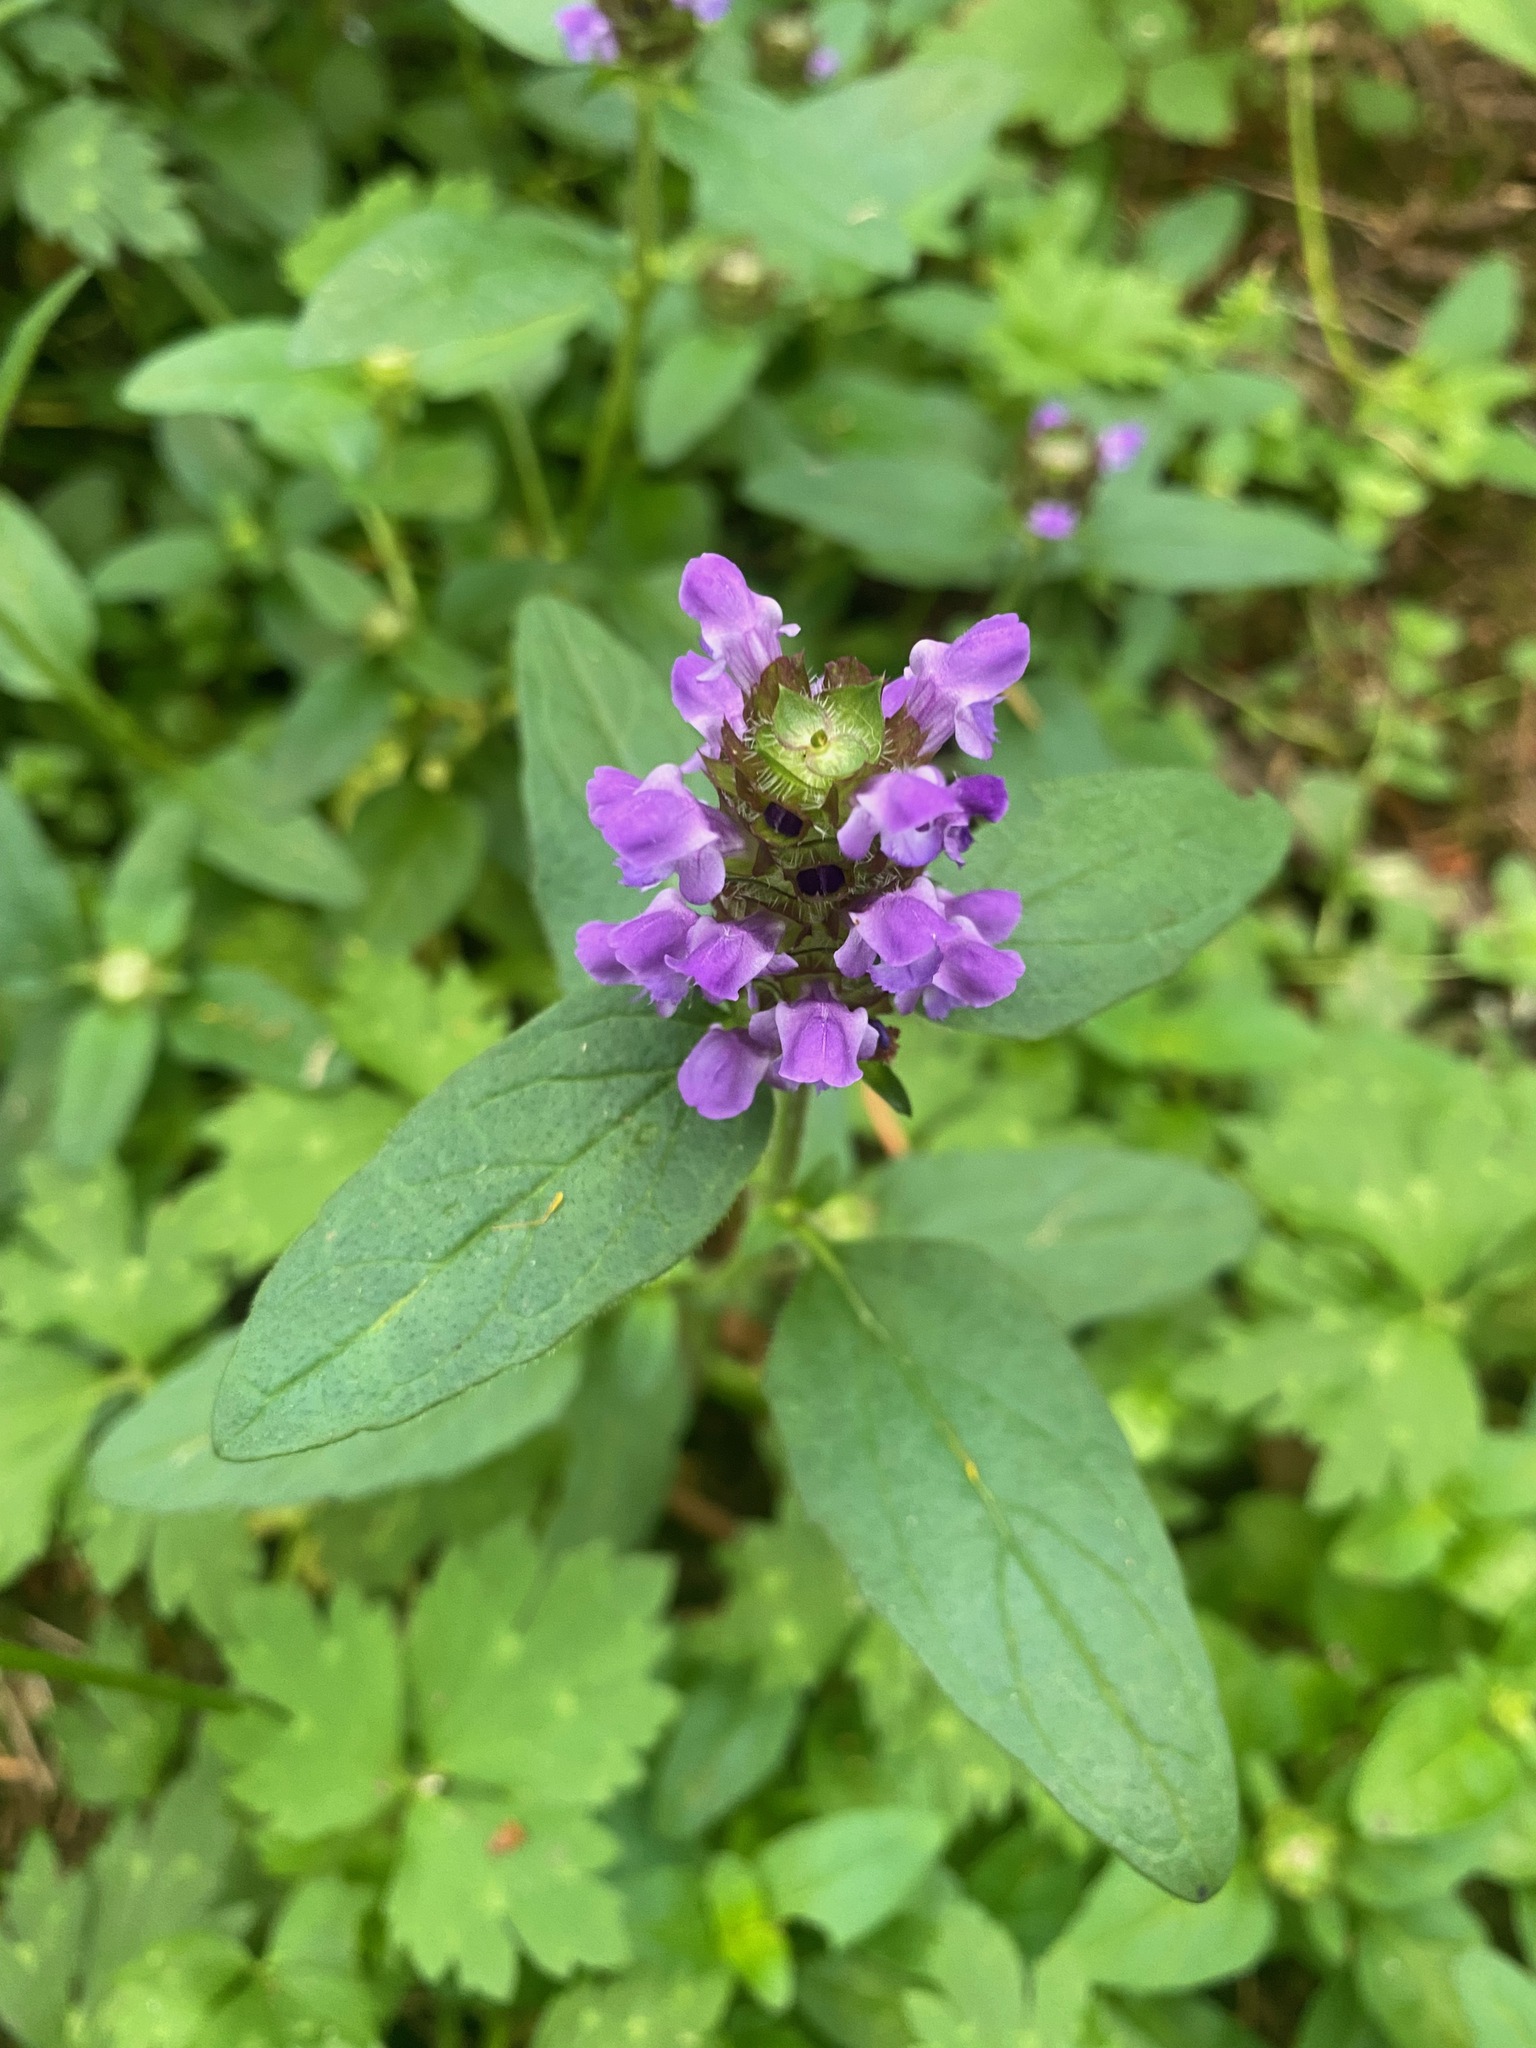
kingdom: Plantae
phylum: Tracheophyta
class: Magnoliopsida
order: Lamiales
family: Lamiaceae
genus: Prunella
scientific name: Prunella vulgaris
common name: Heal-all
